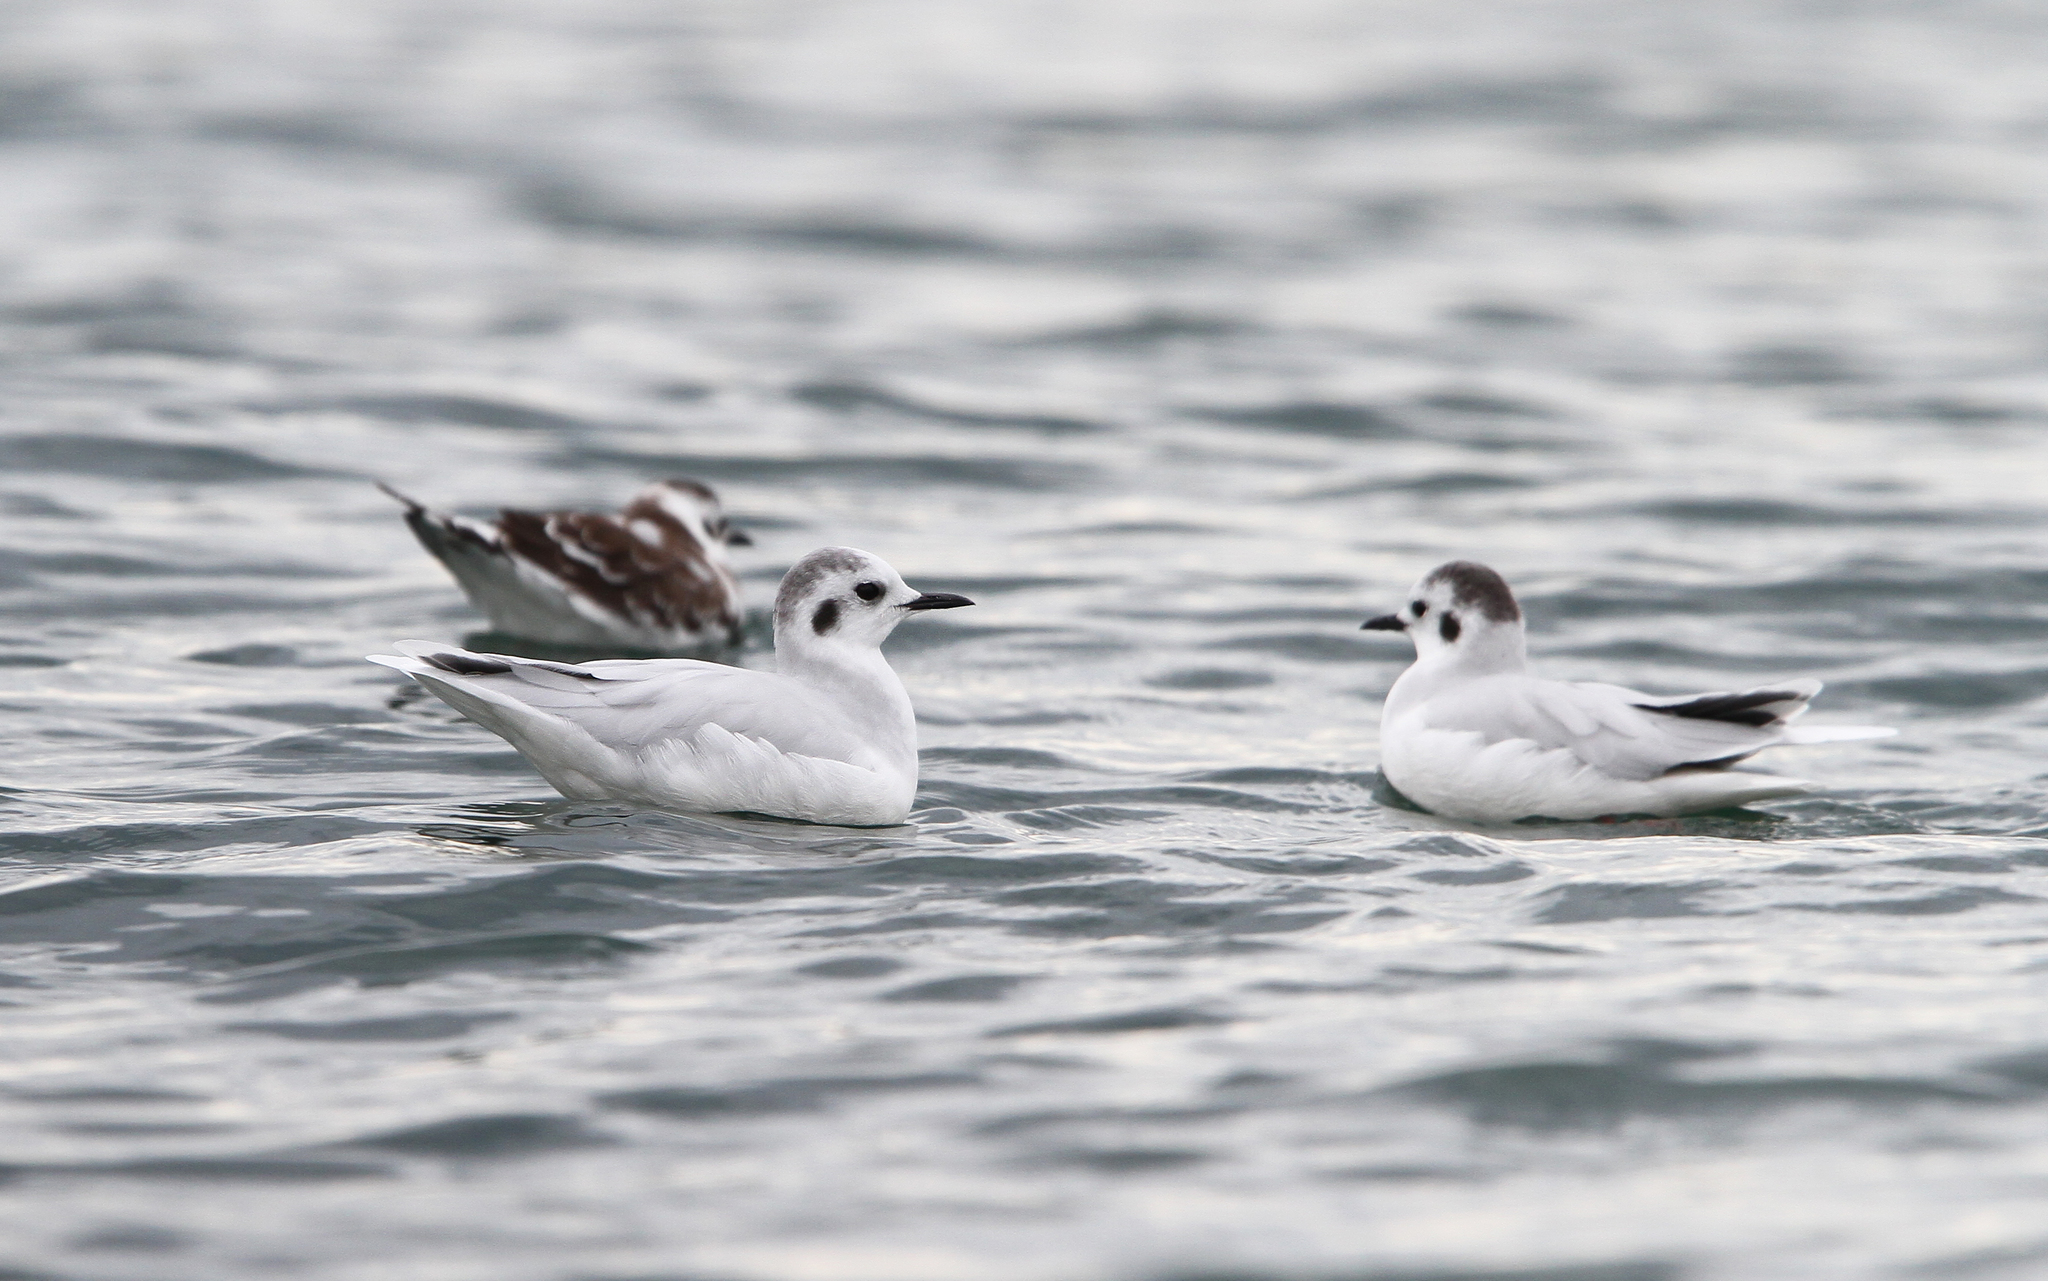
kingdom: Animalia
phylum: Chordata
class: Aves
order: Charadriiformes
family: Laridae
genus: Hydrocoloeus
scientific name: Hydrocoloeus minutus
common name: Little gull
